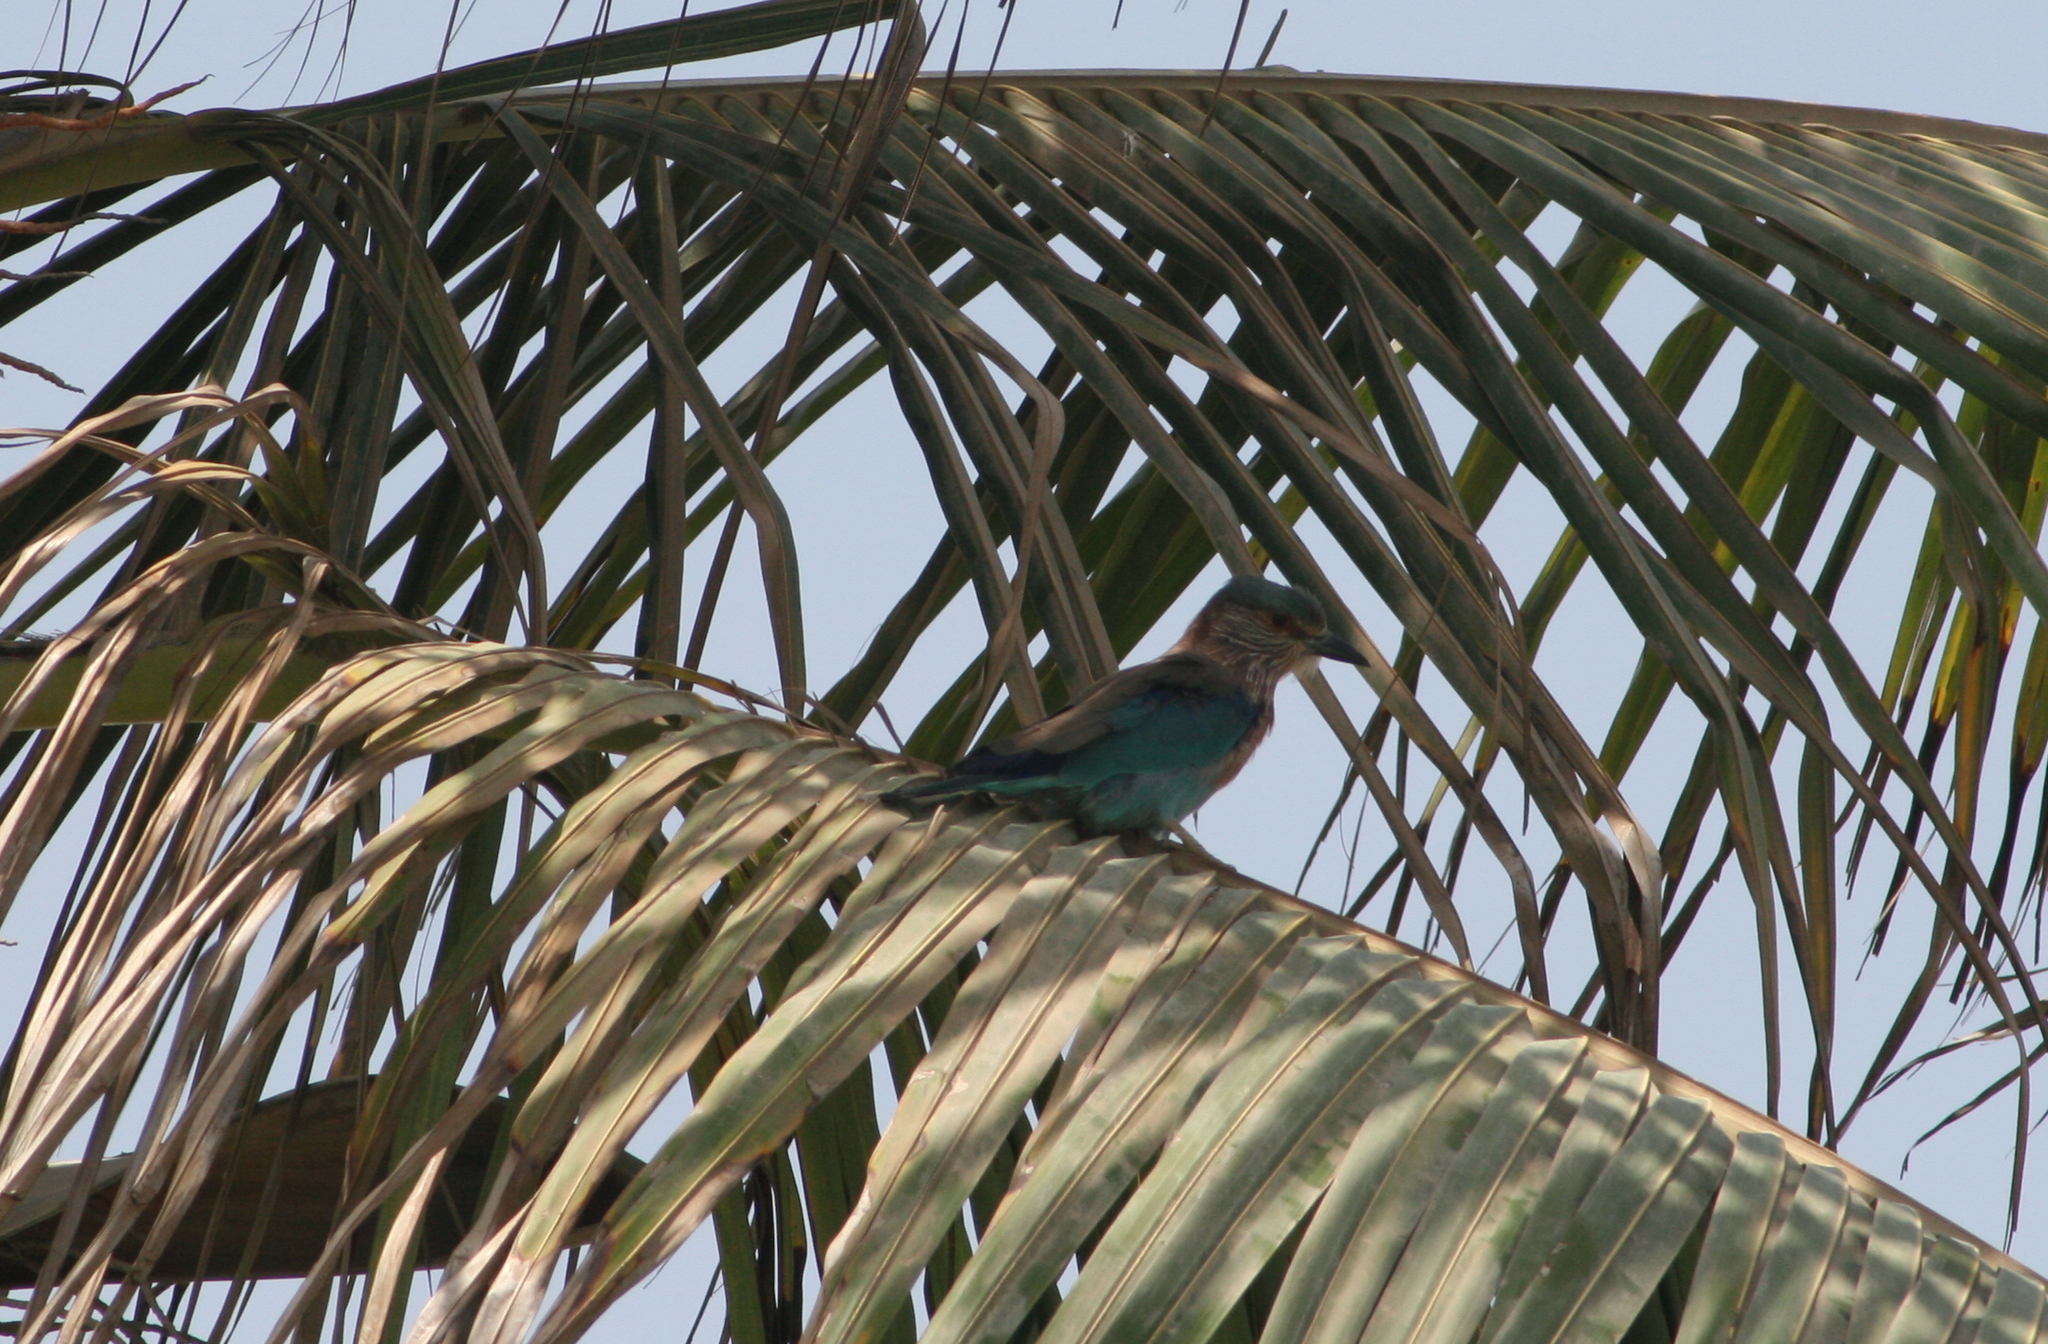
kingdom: Animalia
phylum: Chordata
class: Aves
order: Coraciiformes
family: Coraciidae
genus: Coracias
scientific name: Coracias benghalensis
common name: Indian roller
